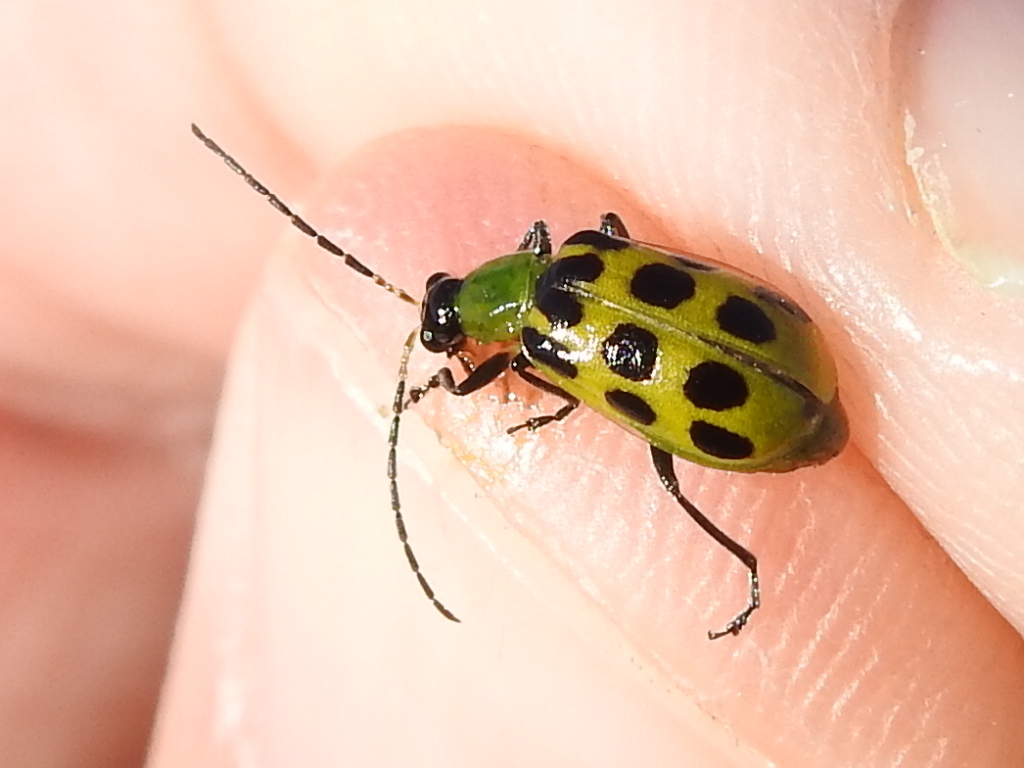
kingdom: Animalia
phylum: Arthropoda
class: Insecta
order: Coleoptera
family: Chrysomelidae
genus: Diabrotica
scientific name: Diabrotica undecimpunctata
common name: Spotted cucumber beetle
